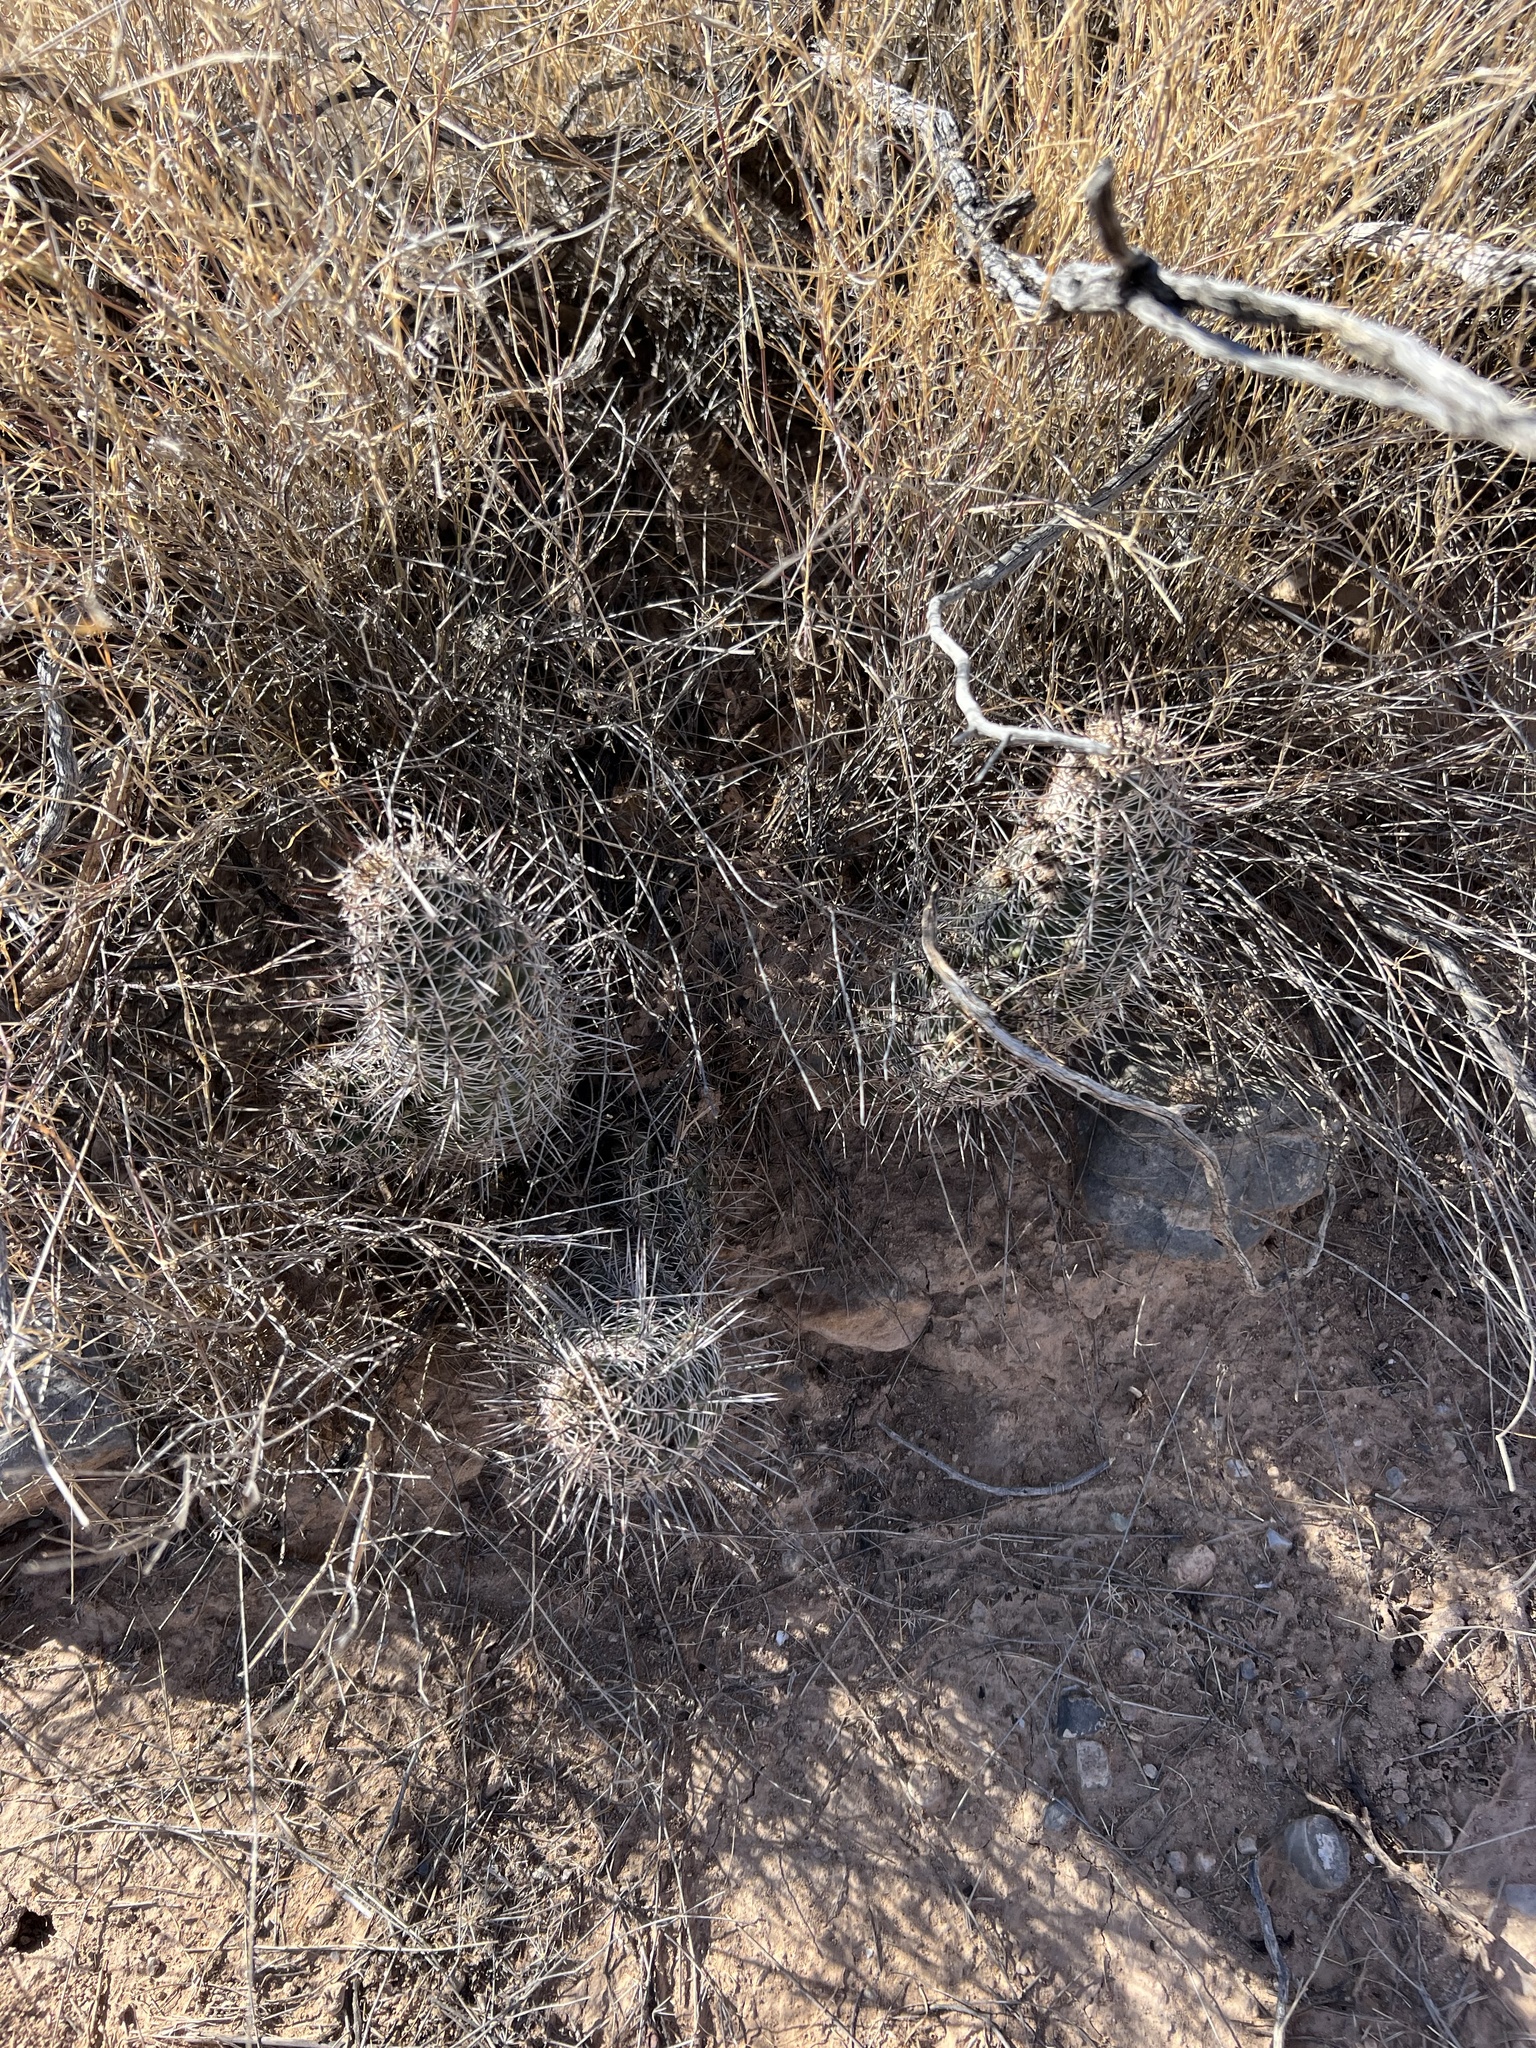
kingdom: Plantae
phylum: Tracheophyta
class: Magnoliopsida
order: Caryophyllales
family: Cactaceae
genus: Echinocereus
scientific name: Echinocereus fendleri
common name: Fendler's hedgehog cactus
